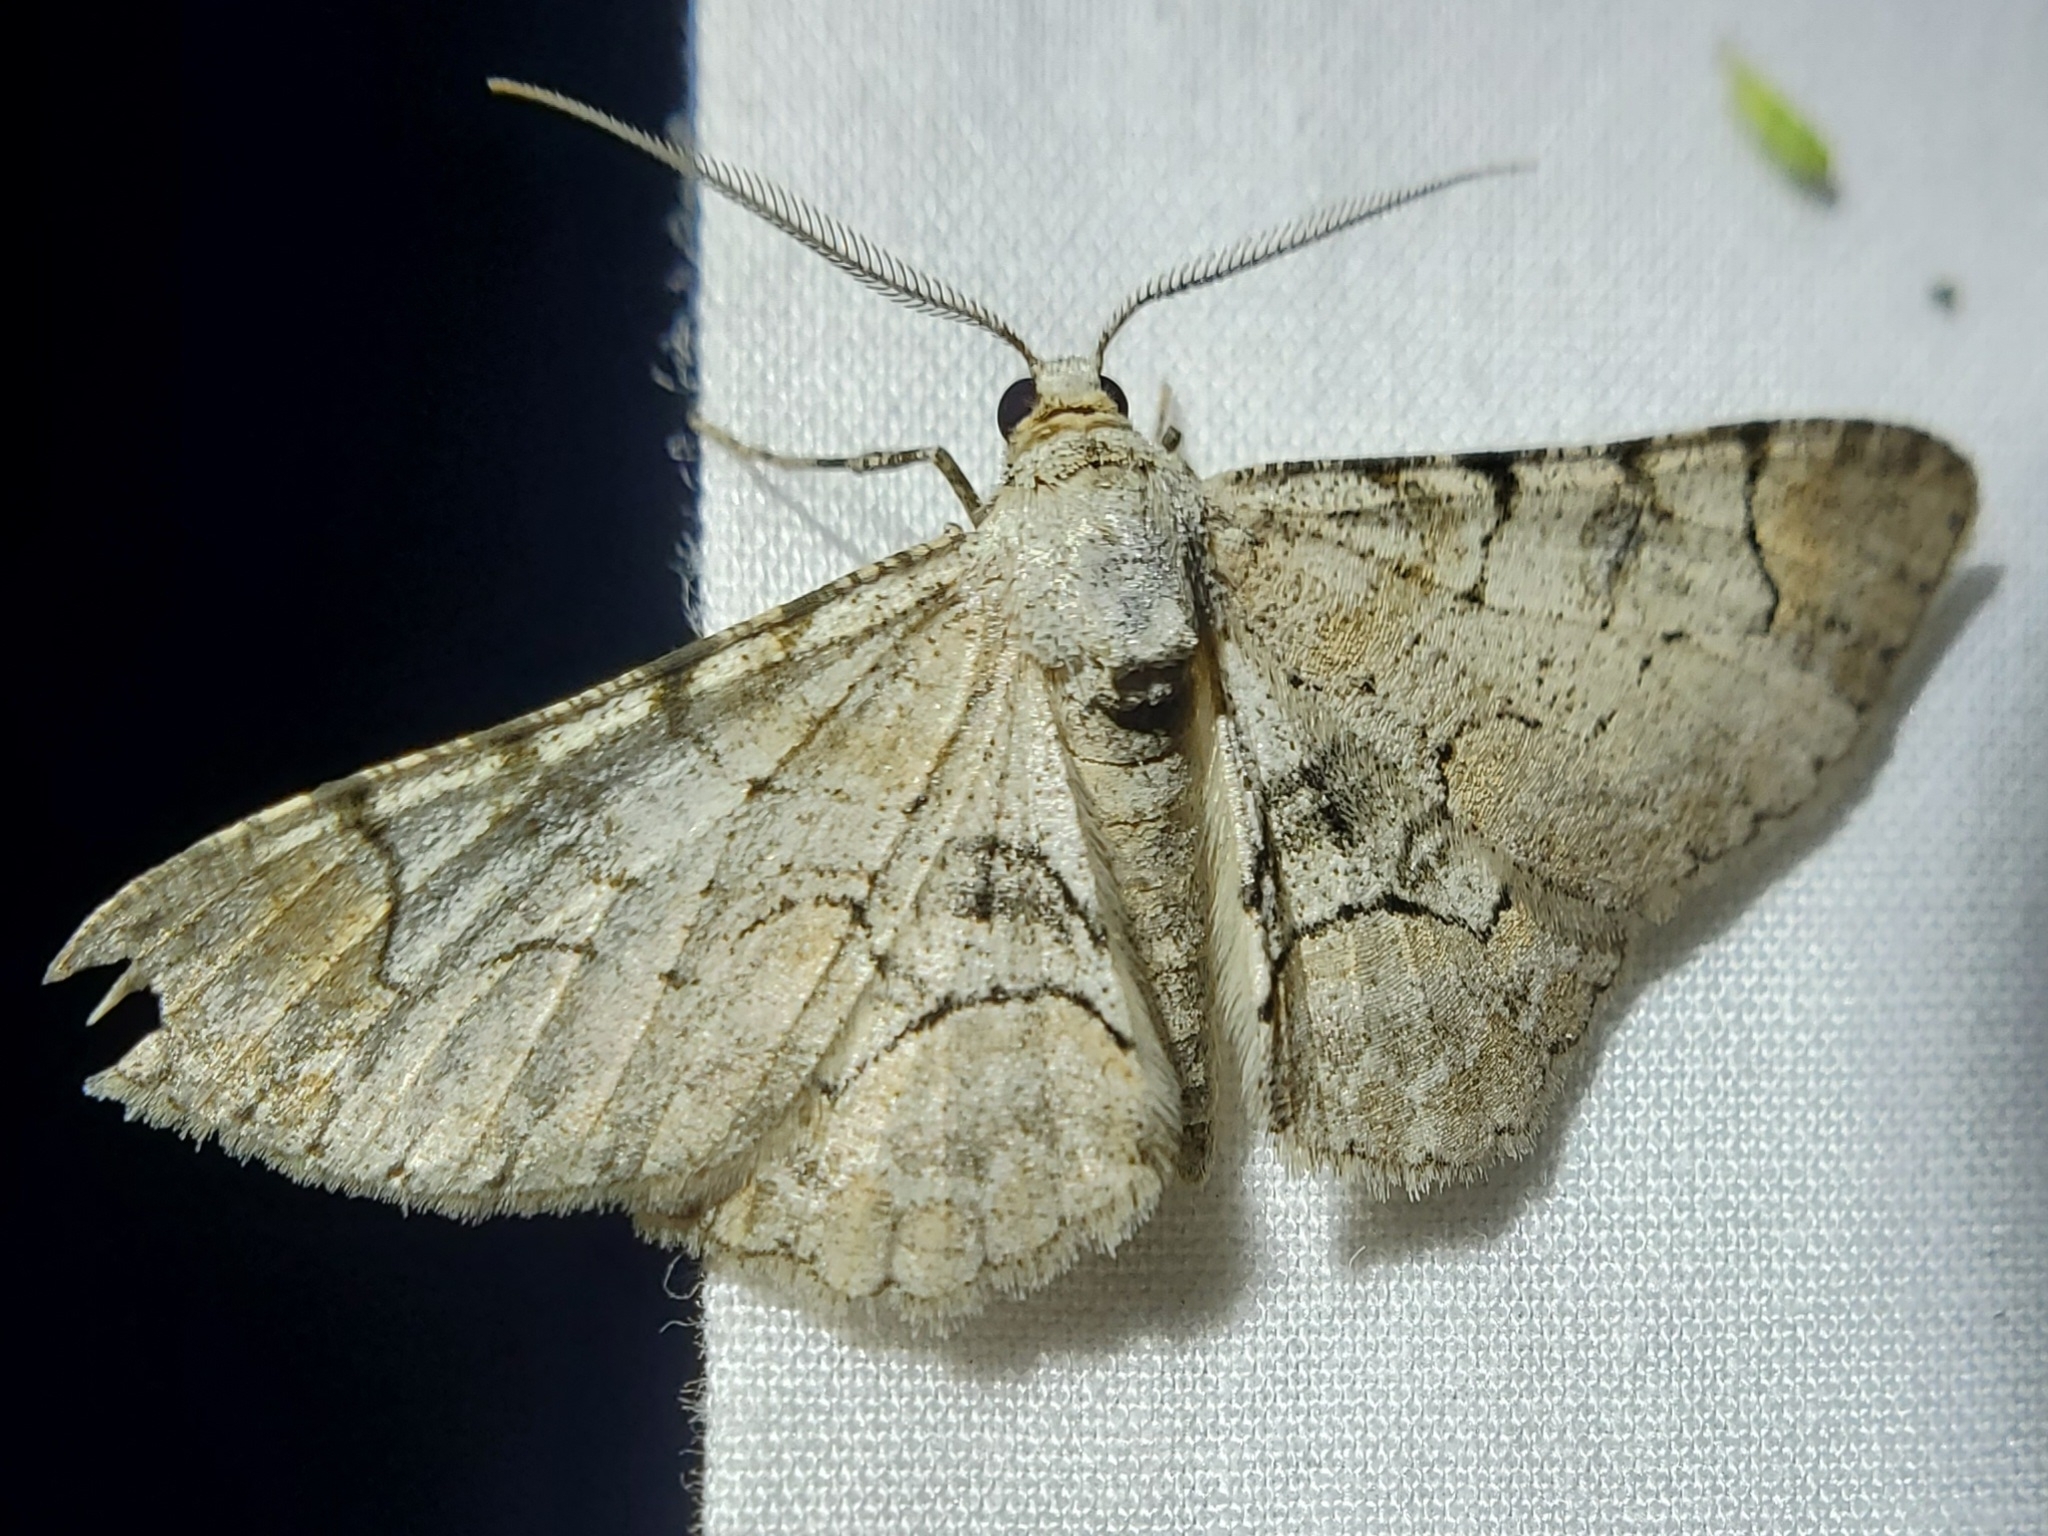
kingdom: Animalia
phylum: Arthropoda
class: Insecta
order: Lepidoptera
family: Geometridae
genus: Iridopsis
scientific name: Iridopsis larvaria
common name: Bent-line gray
